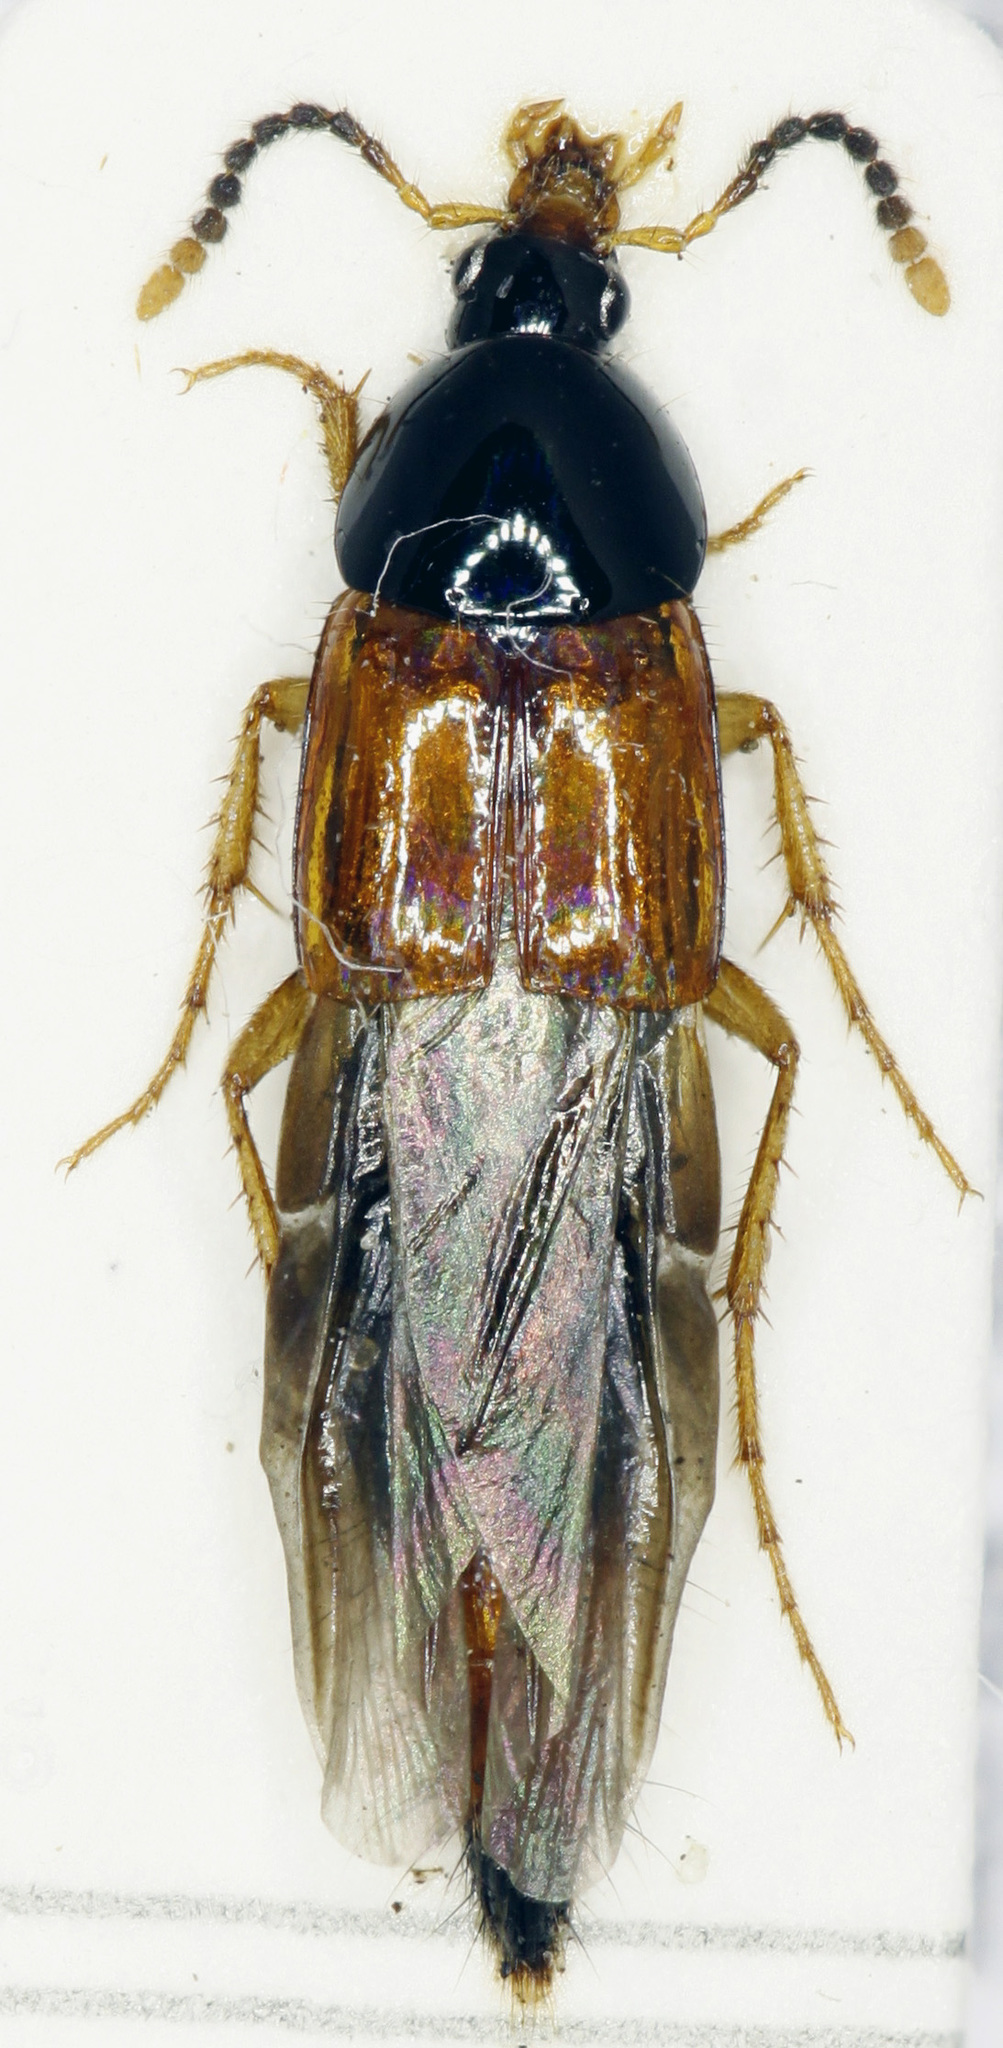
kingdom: Animalia
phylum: Arthropoda
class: Insecta
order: Coleoptera
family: Staphylinidae
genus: Bolitobius
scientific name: Bolitobius cingulatus
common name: Staph beetle
